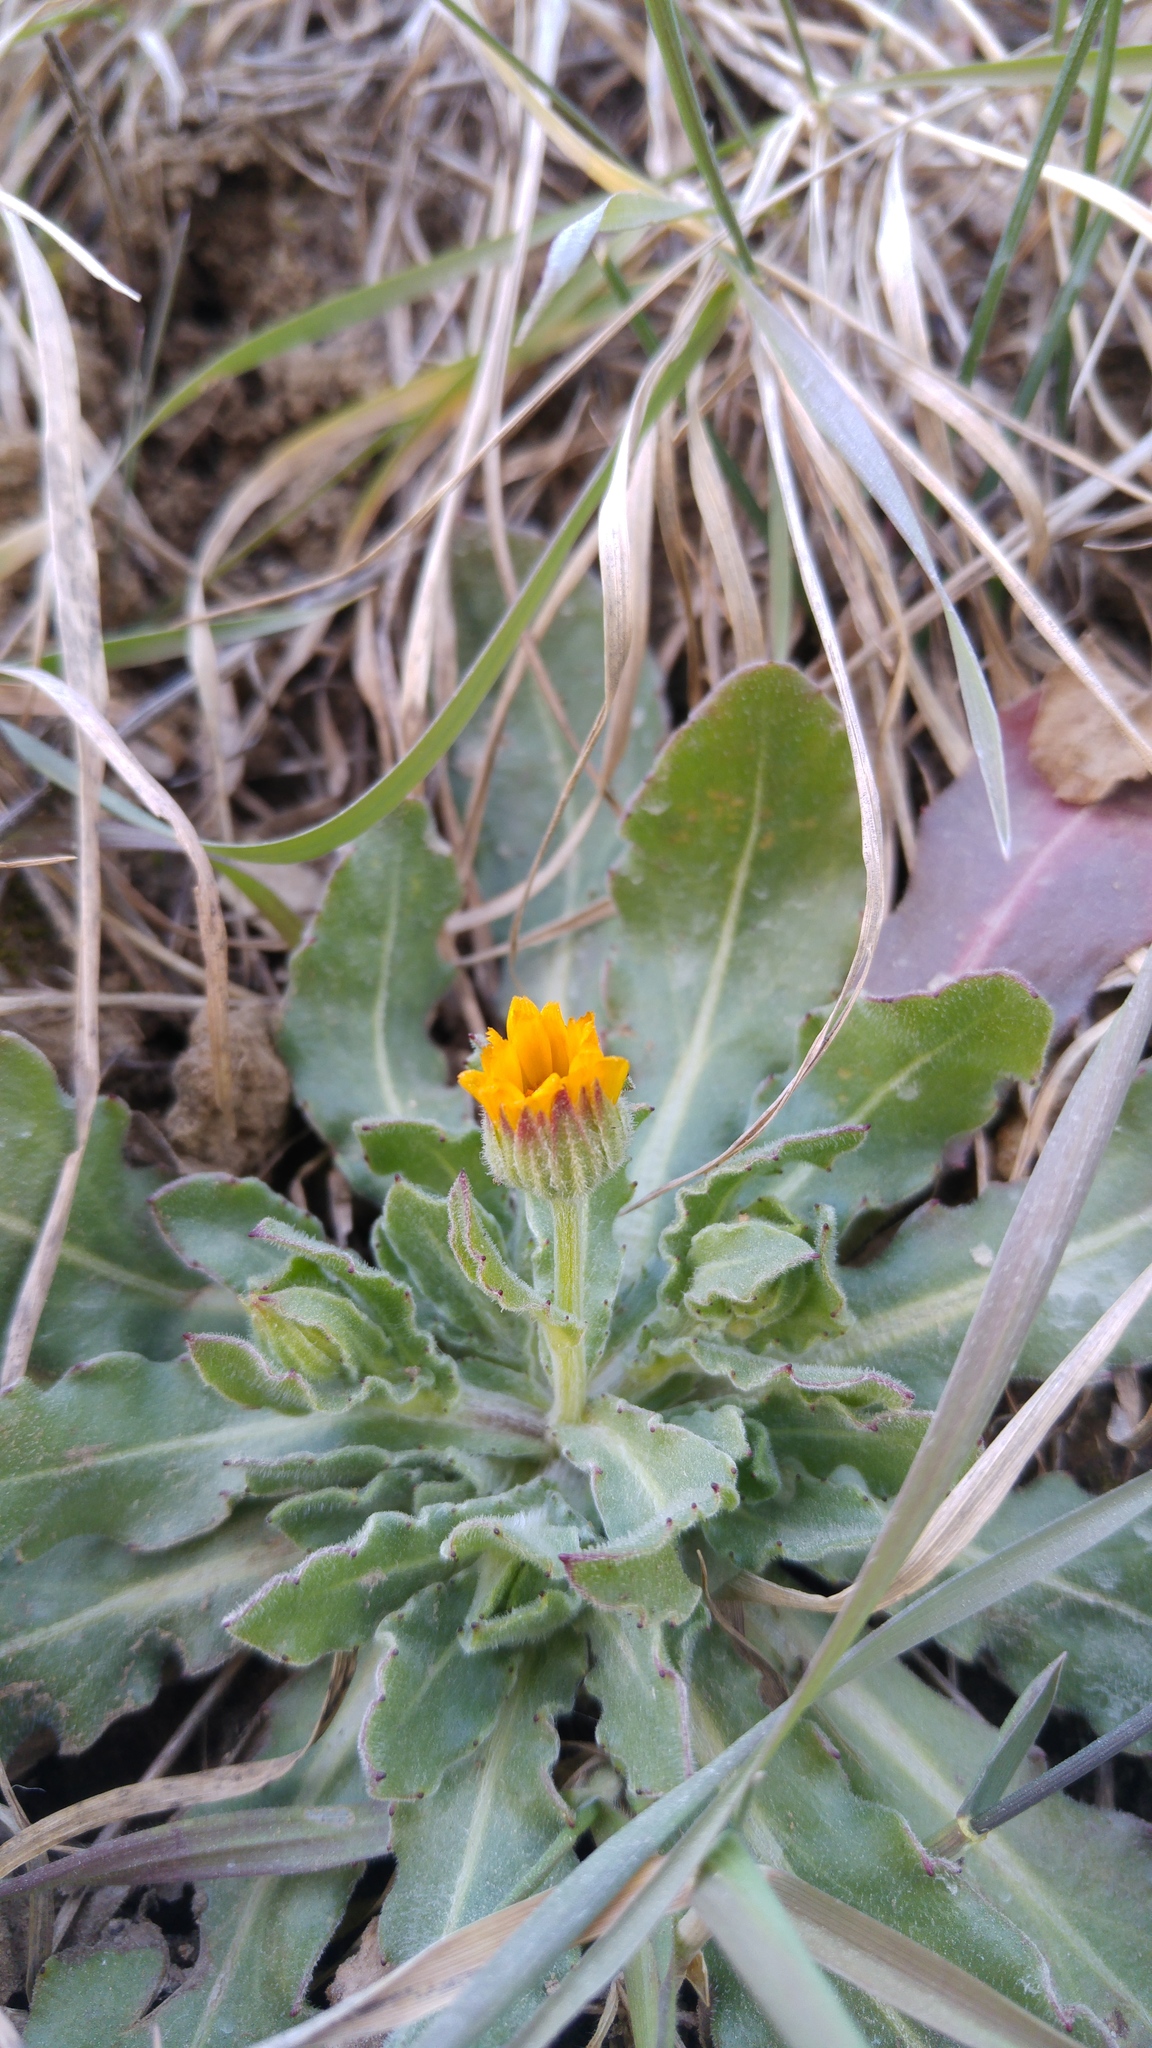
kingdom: Plantae
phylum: Tracheophyta
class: Magnoliopsida
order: Asterales
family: Asteraceae
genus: Calendula
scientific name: Calendula arvensis
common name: Field marigold
